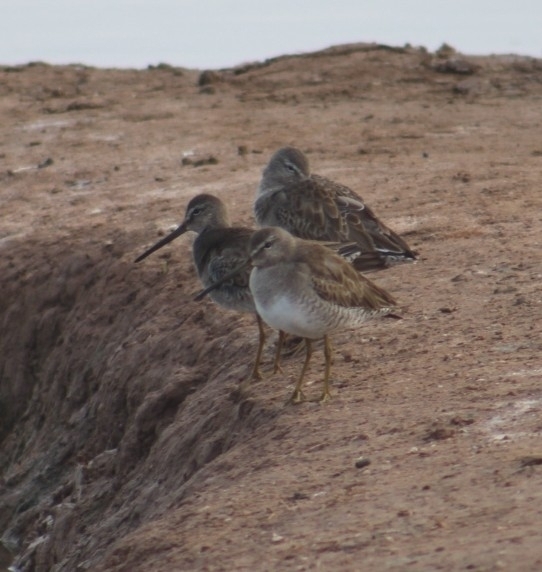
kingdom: Animalia
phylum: Chordata
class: Aves
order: Charadriiformes
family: Scolopacidae
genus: Limnodromus
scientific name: Limnodromus scolopaceus
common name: Long-billed dowitcher
